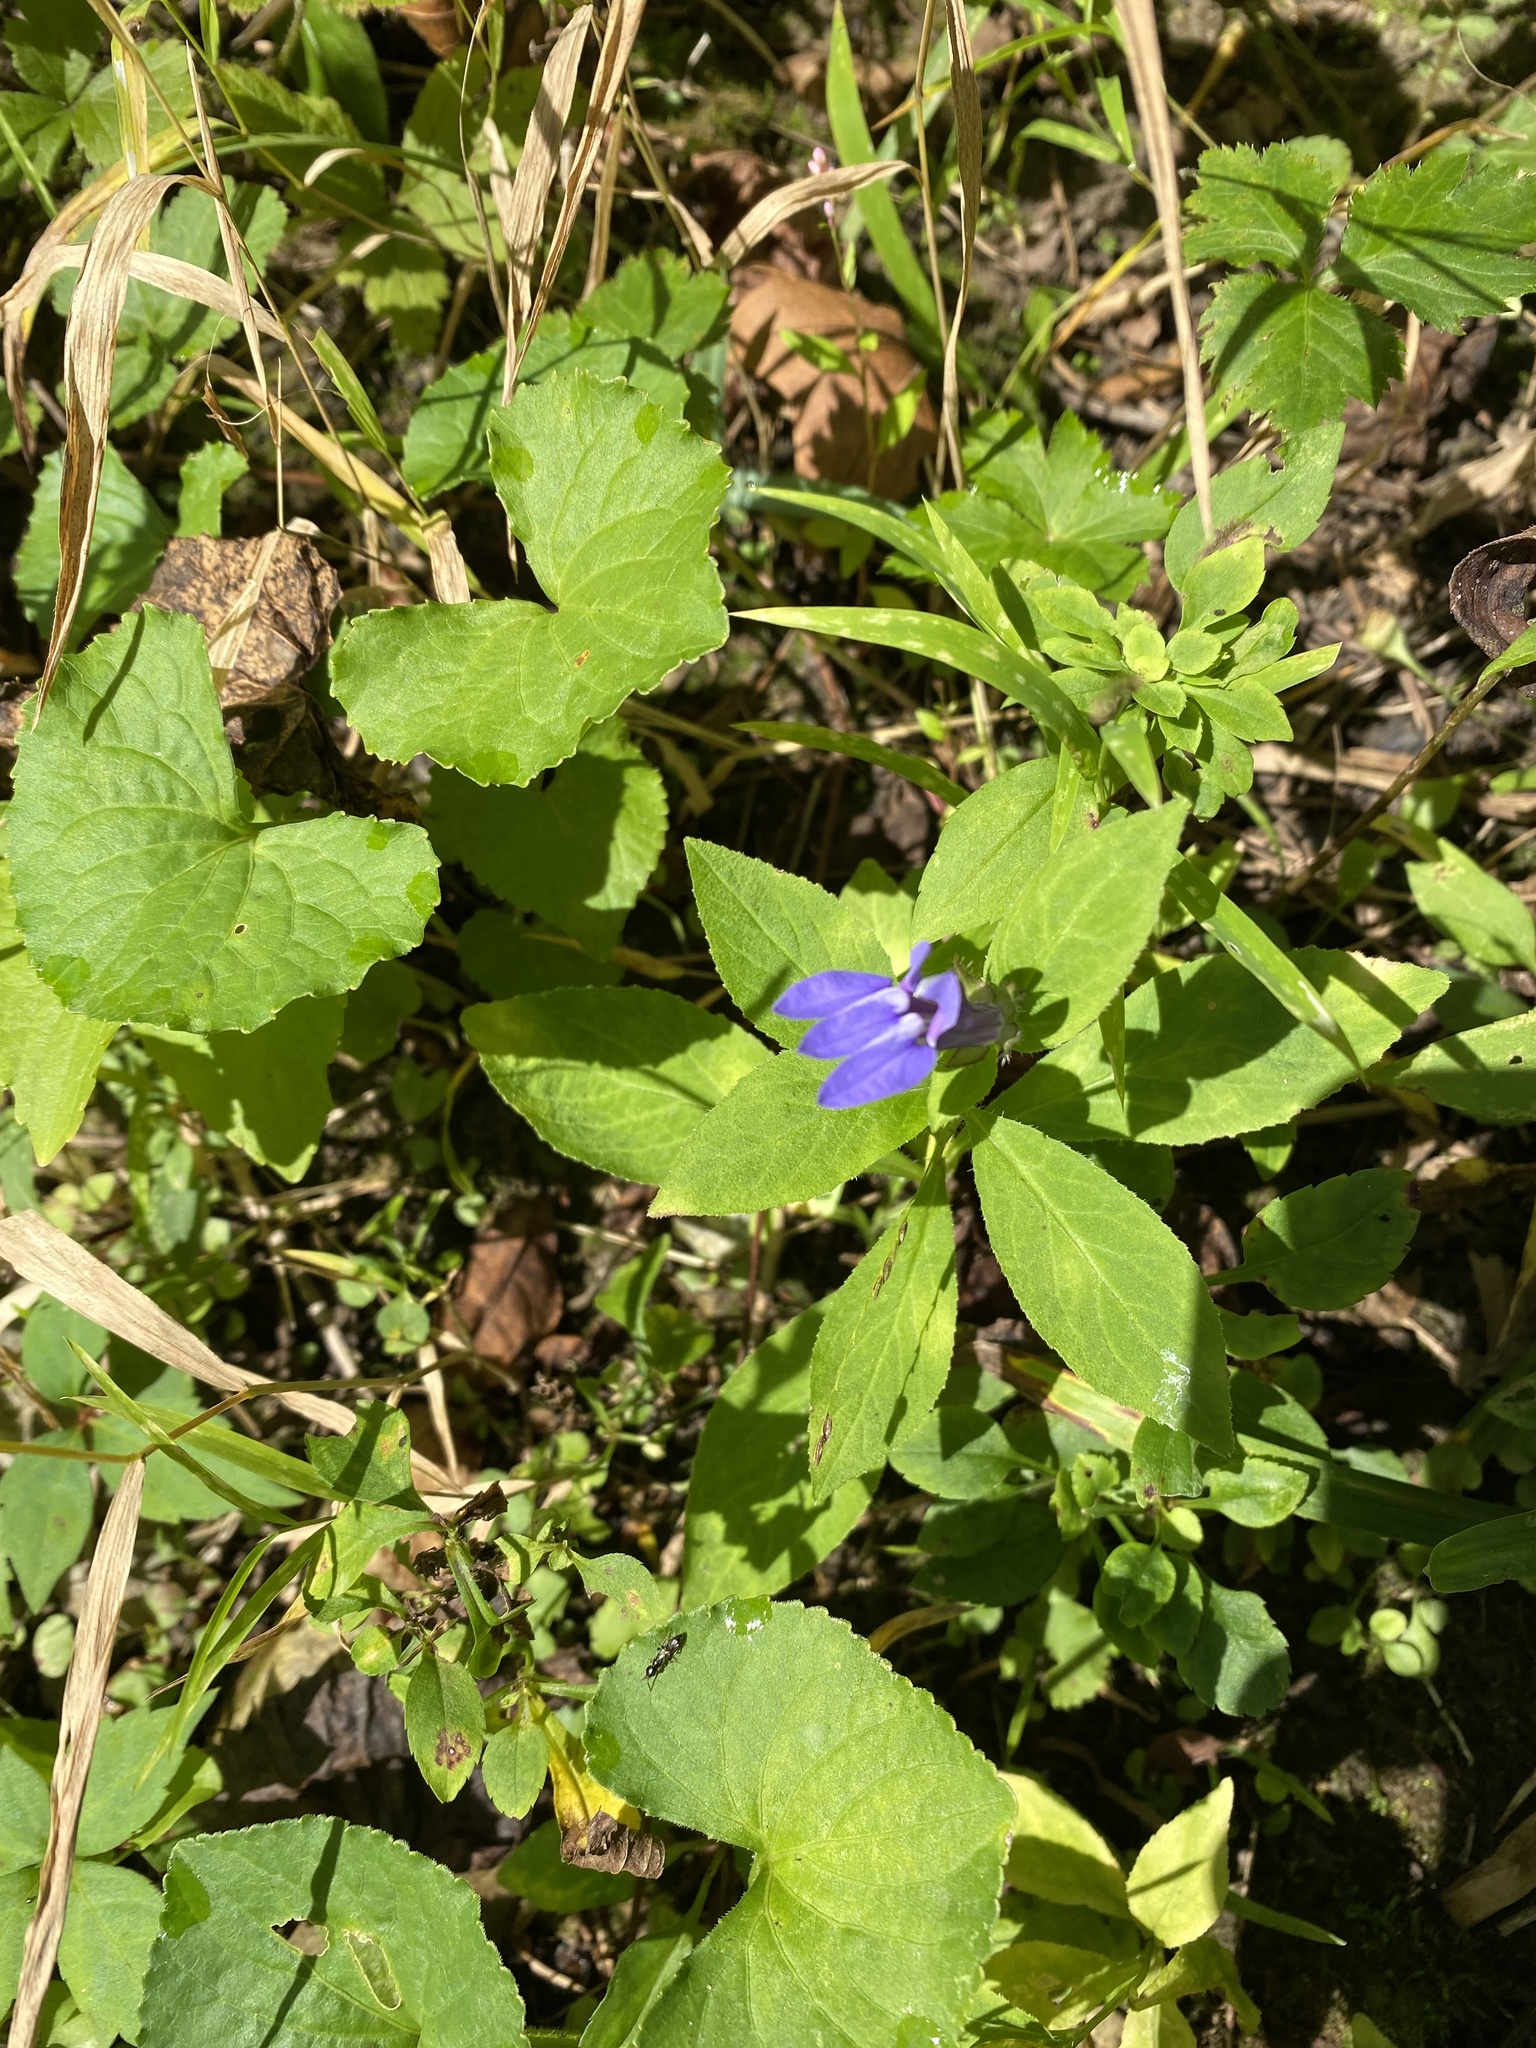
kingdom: Plantae
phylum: Tracheophyta
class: Magnoliopsida
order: Asterales
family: Campanulaceae
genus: Lobelia
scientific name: Lobelia siphilitica
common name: Great lobelia
